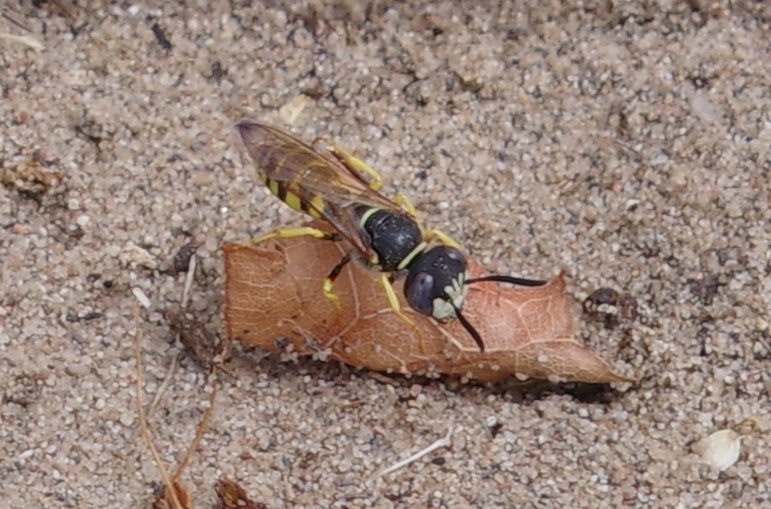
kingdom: Animalia
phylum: Arthropoda
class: Insecta
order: Hymenoptera
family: Crabronidae
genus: Philanthus
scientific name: Philanthus triangulum
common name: Bee wolf
